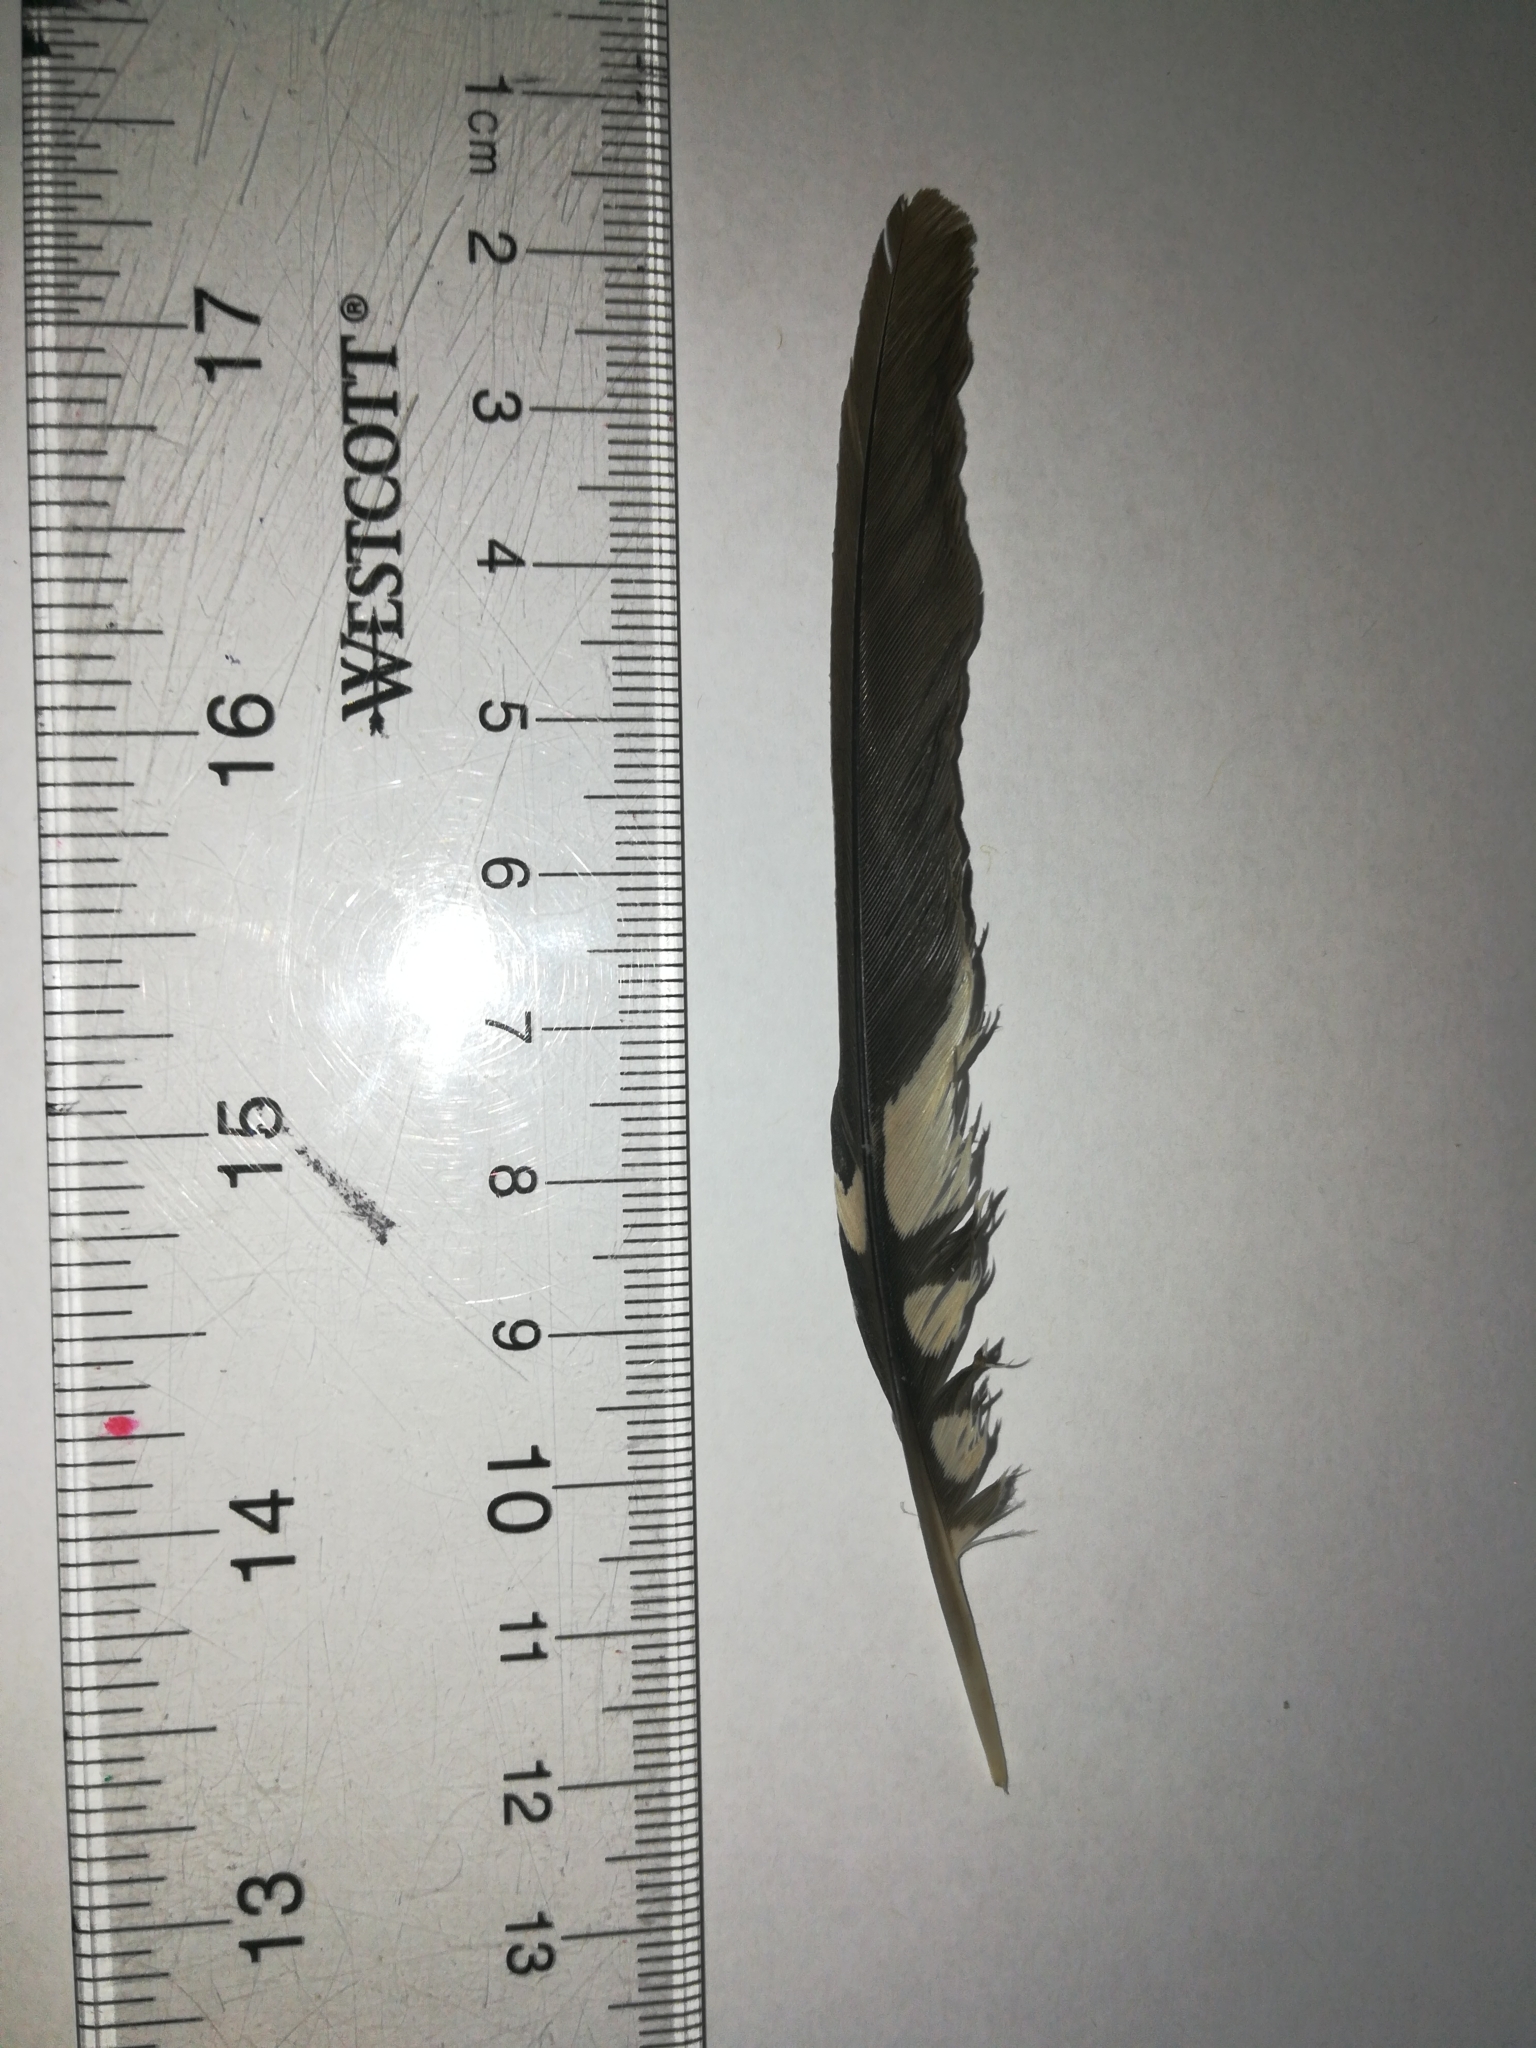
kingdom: Animalia
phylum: Chordata
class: Aves
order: Piciformes
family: Picidae
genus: Melanerpes
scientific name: Melanerpes carolinus
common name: Red-bellied woodpecker
